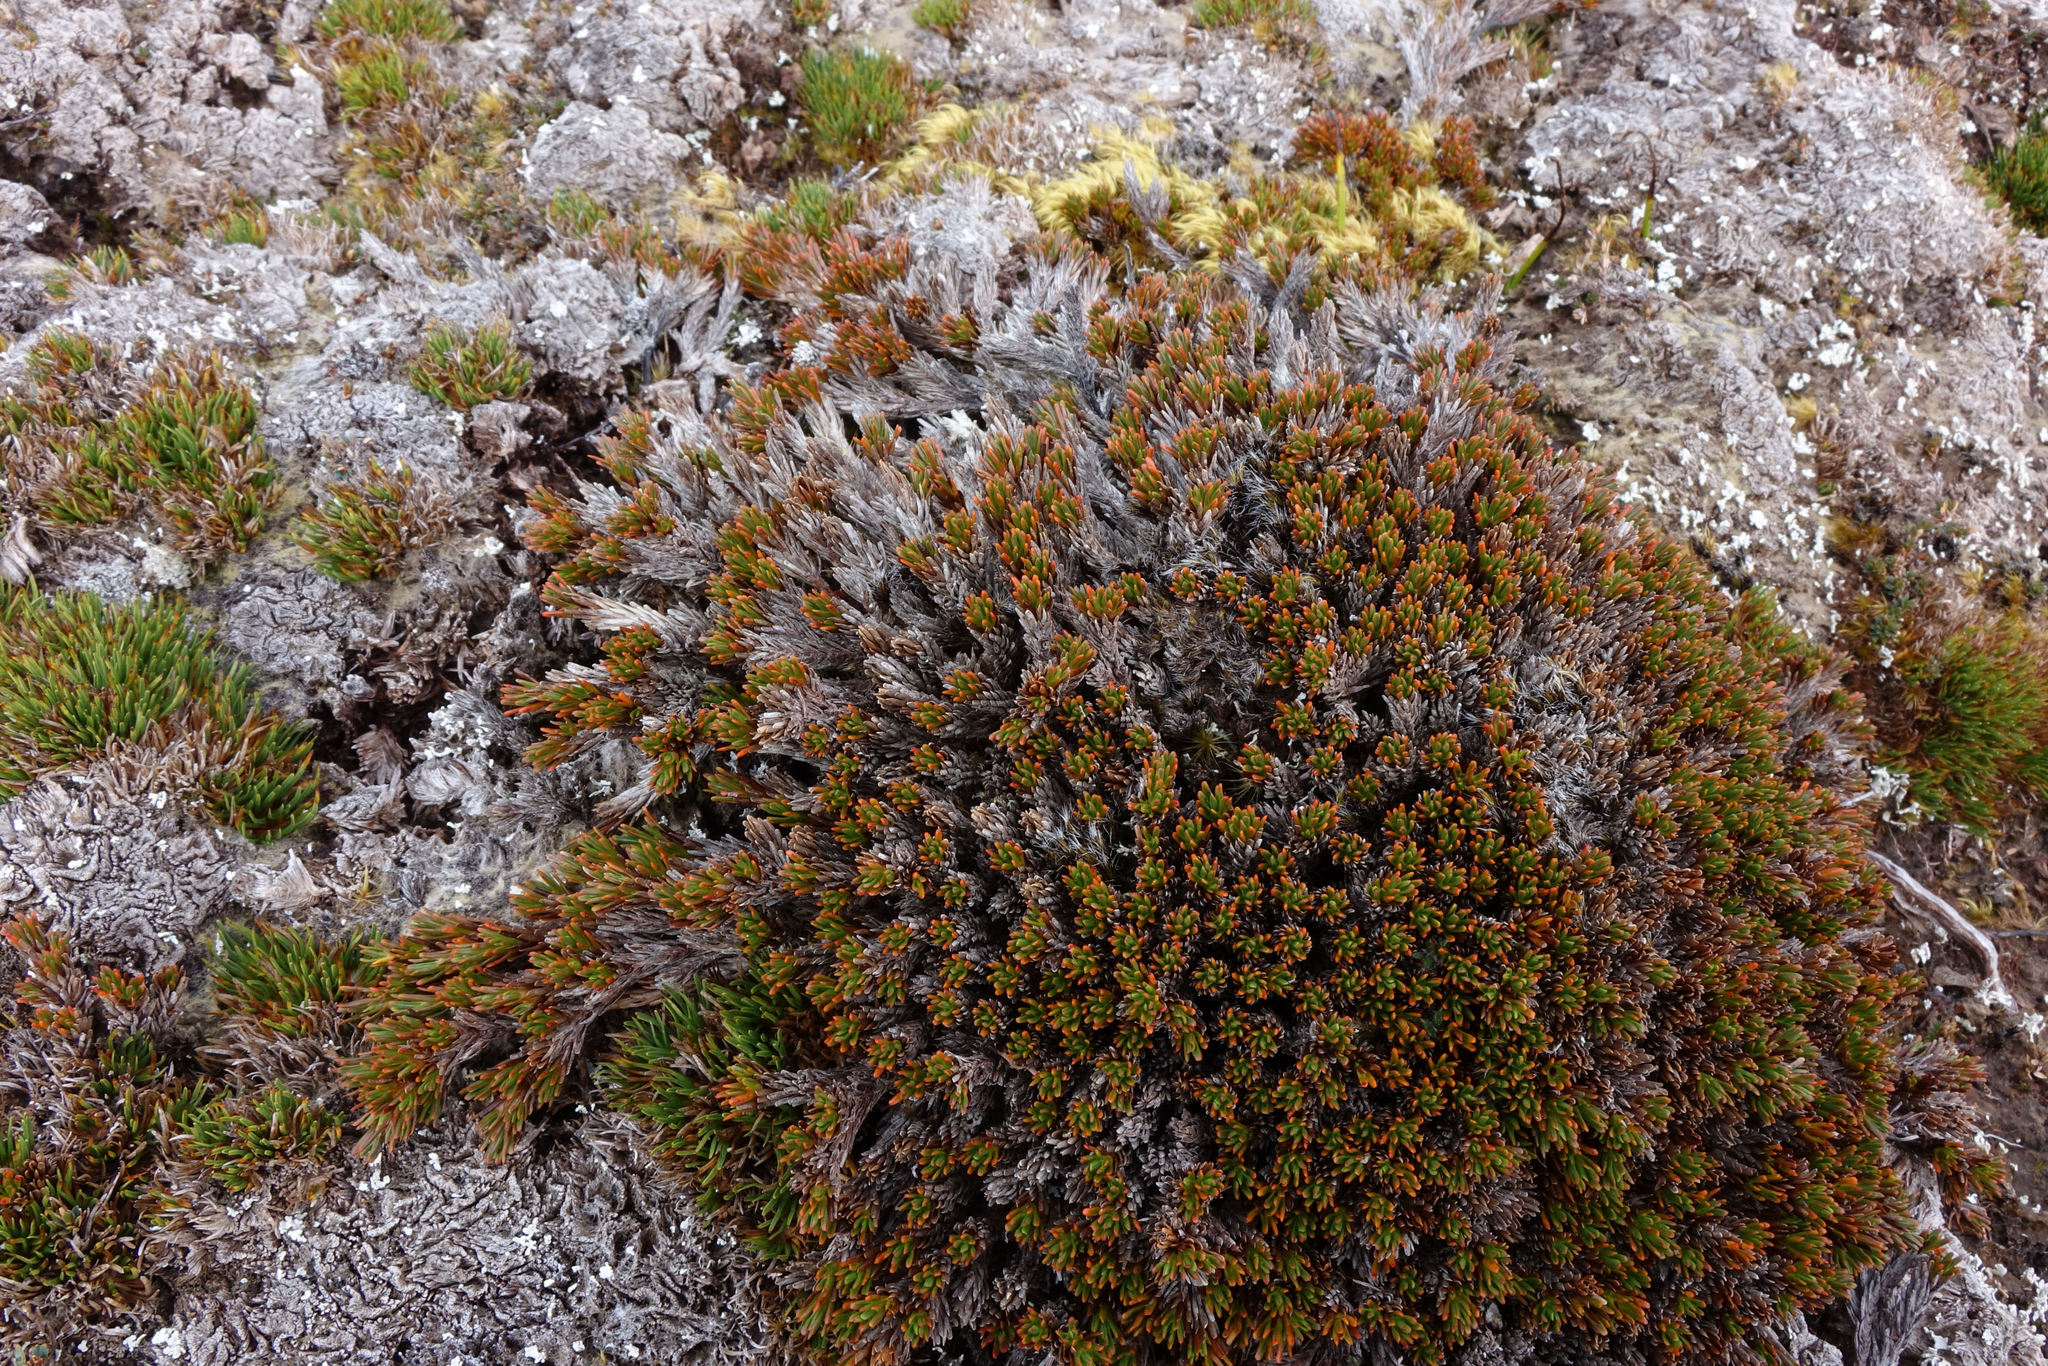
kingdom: Plantae
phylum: Tracheophyta
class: Magnoliopsida
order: Ericales
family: Ericaceae
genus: Dracophyllum
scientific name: Dracophyllum politum
